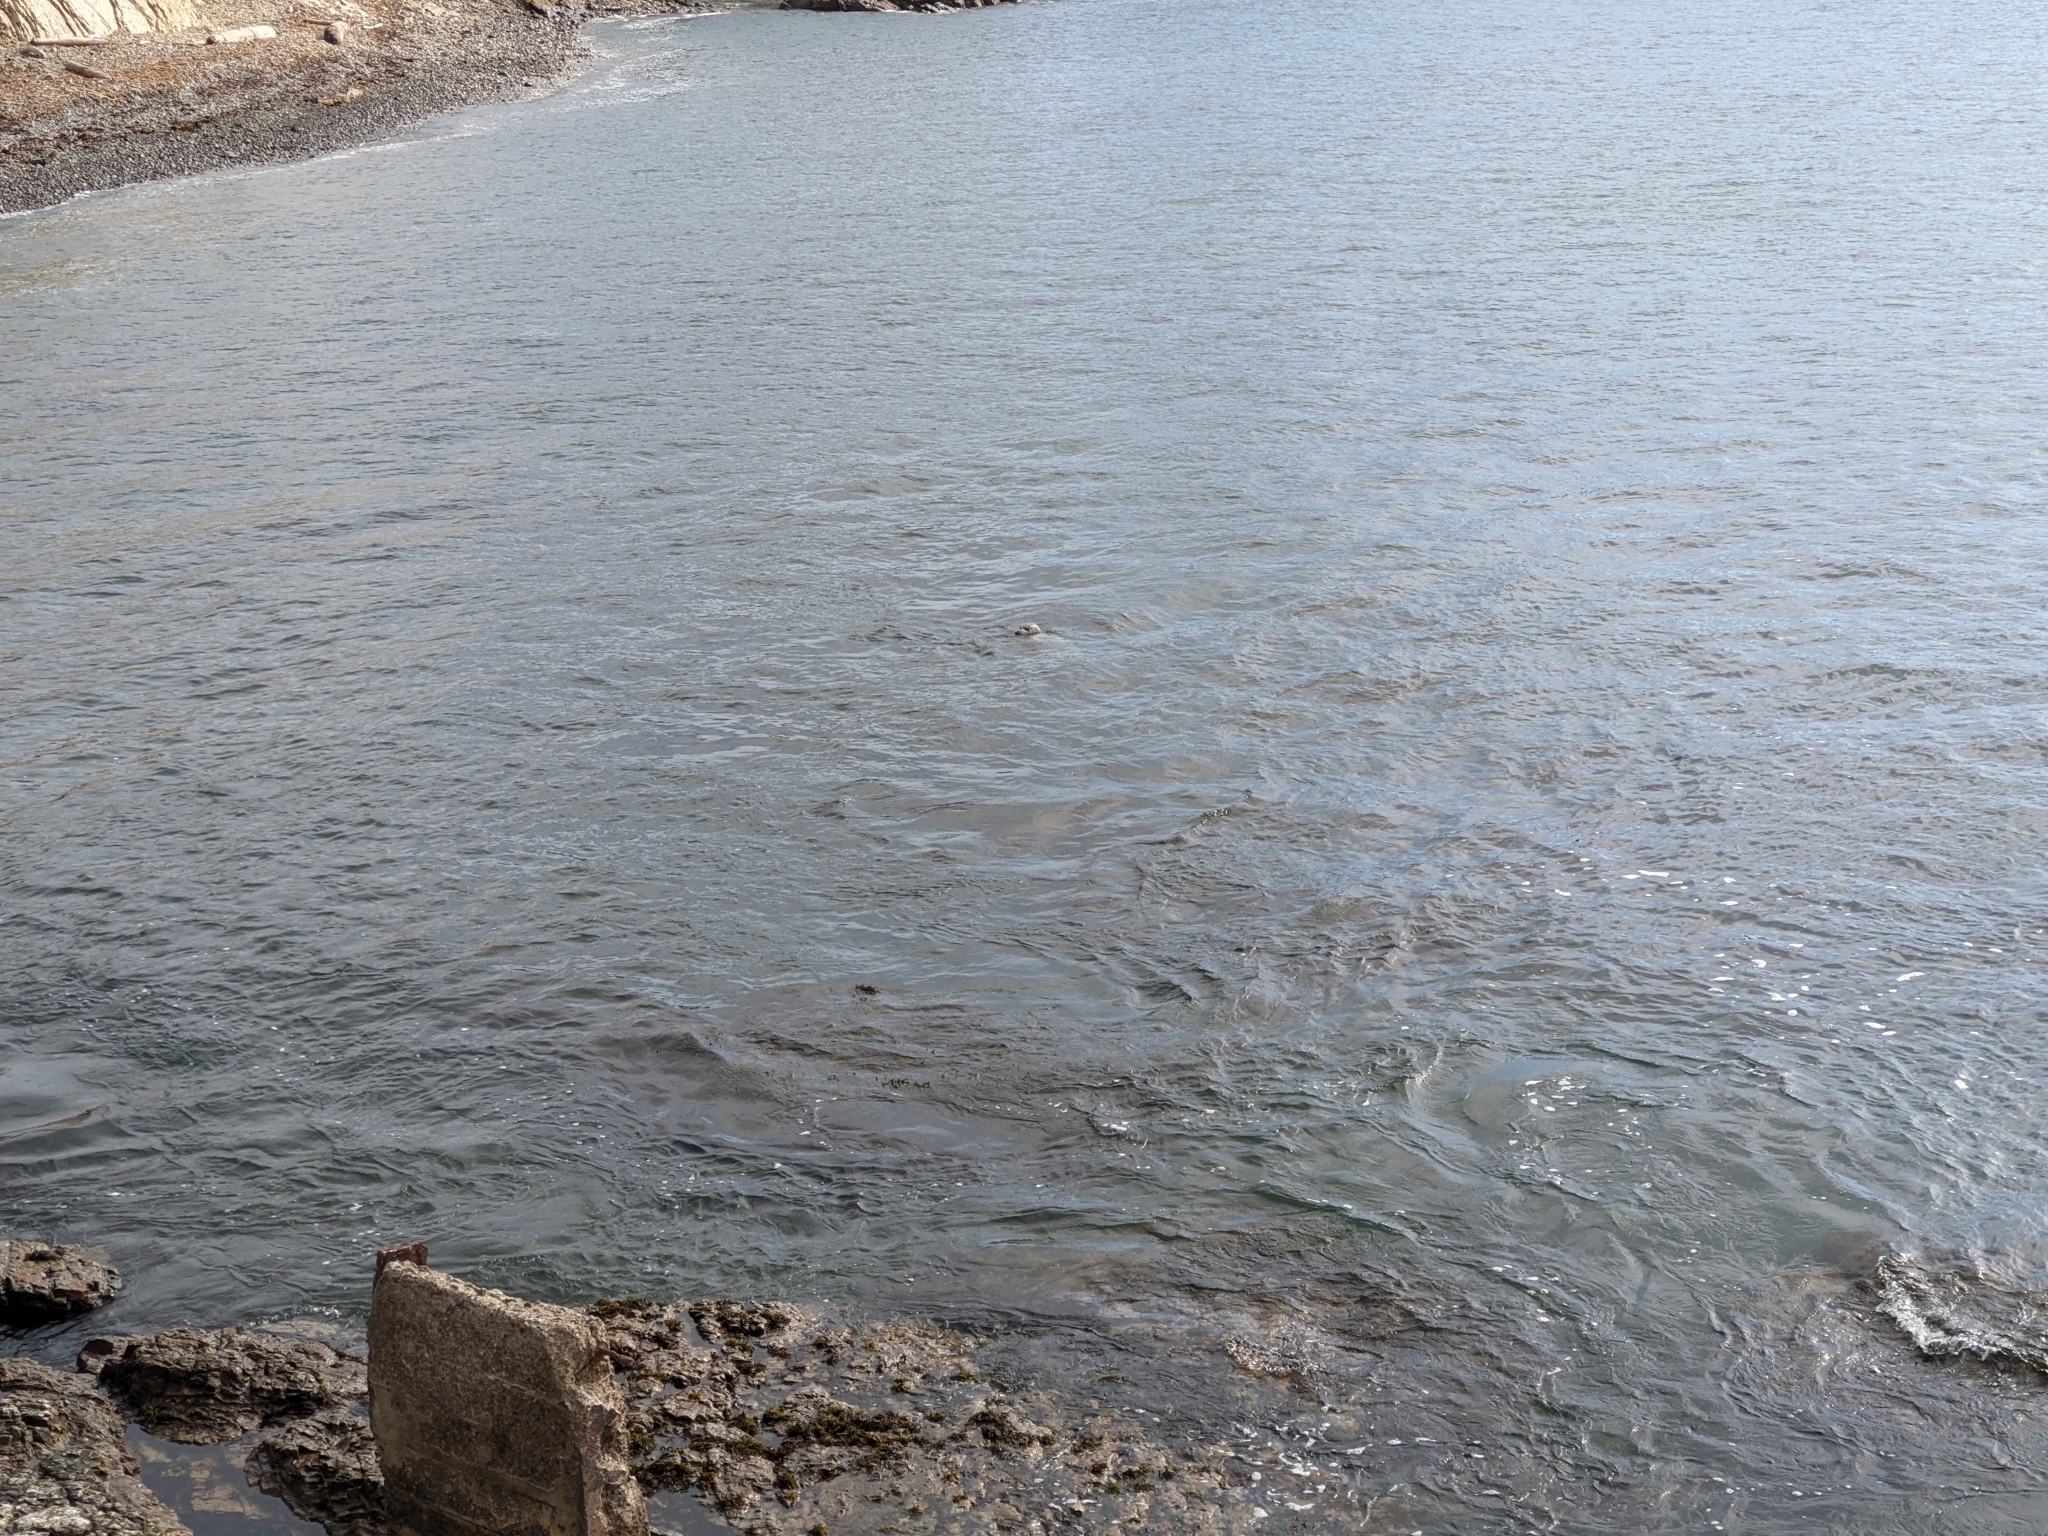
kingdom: Animalia
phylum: Chordata
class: Mammalia
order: Carnivora
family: Phocidae
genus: Phoca
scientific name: Phoca vitulina
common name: Harbor seal
